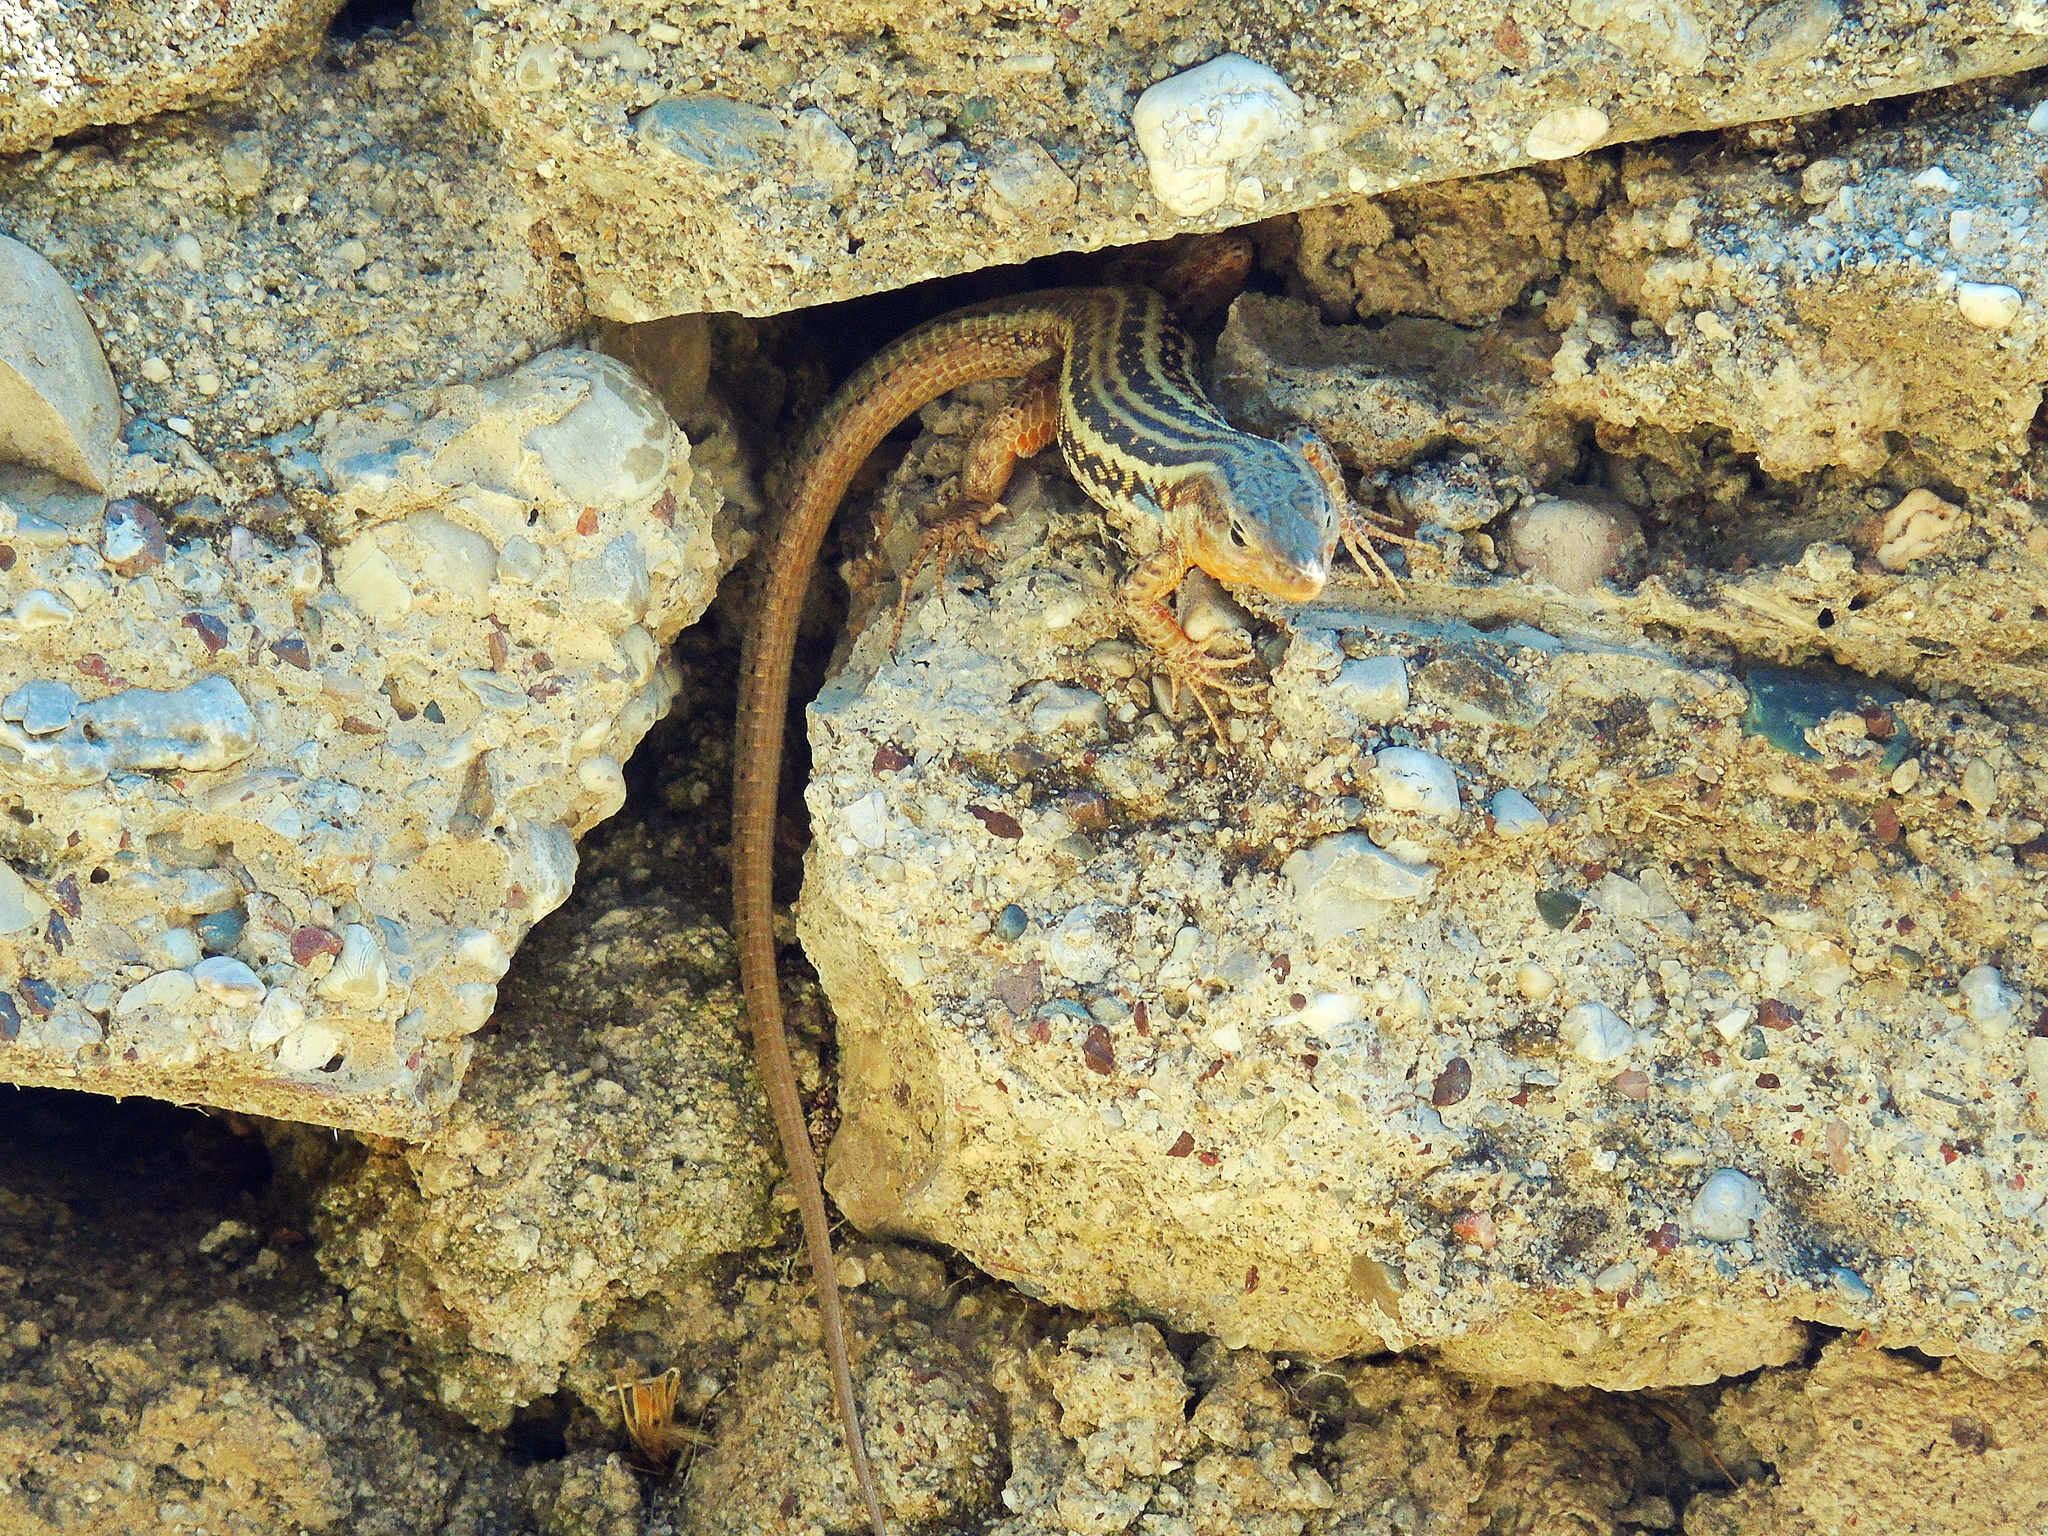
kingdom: Animalia
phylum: Chordata
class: Squamata
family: Lacertidae
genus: Podarcis
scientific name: Podarcis peloponnesiacus
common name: Peloponnese wall lizard
